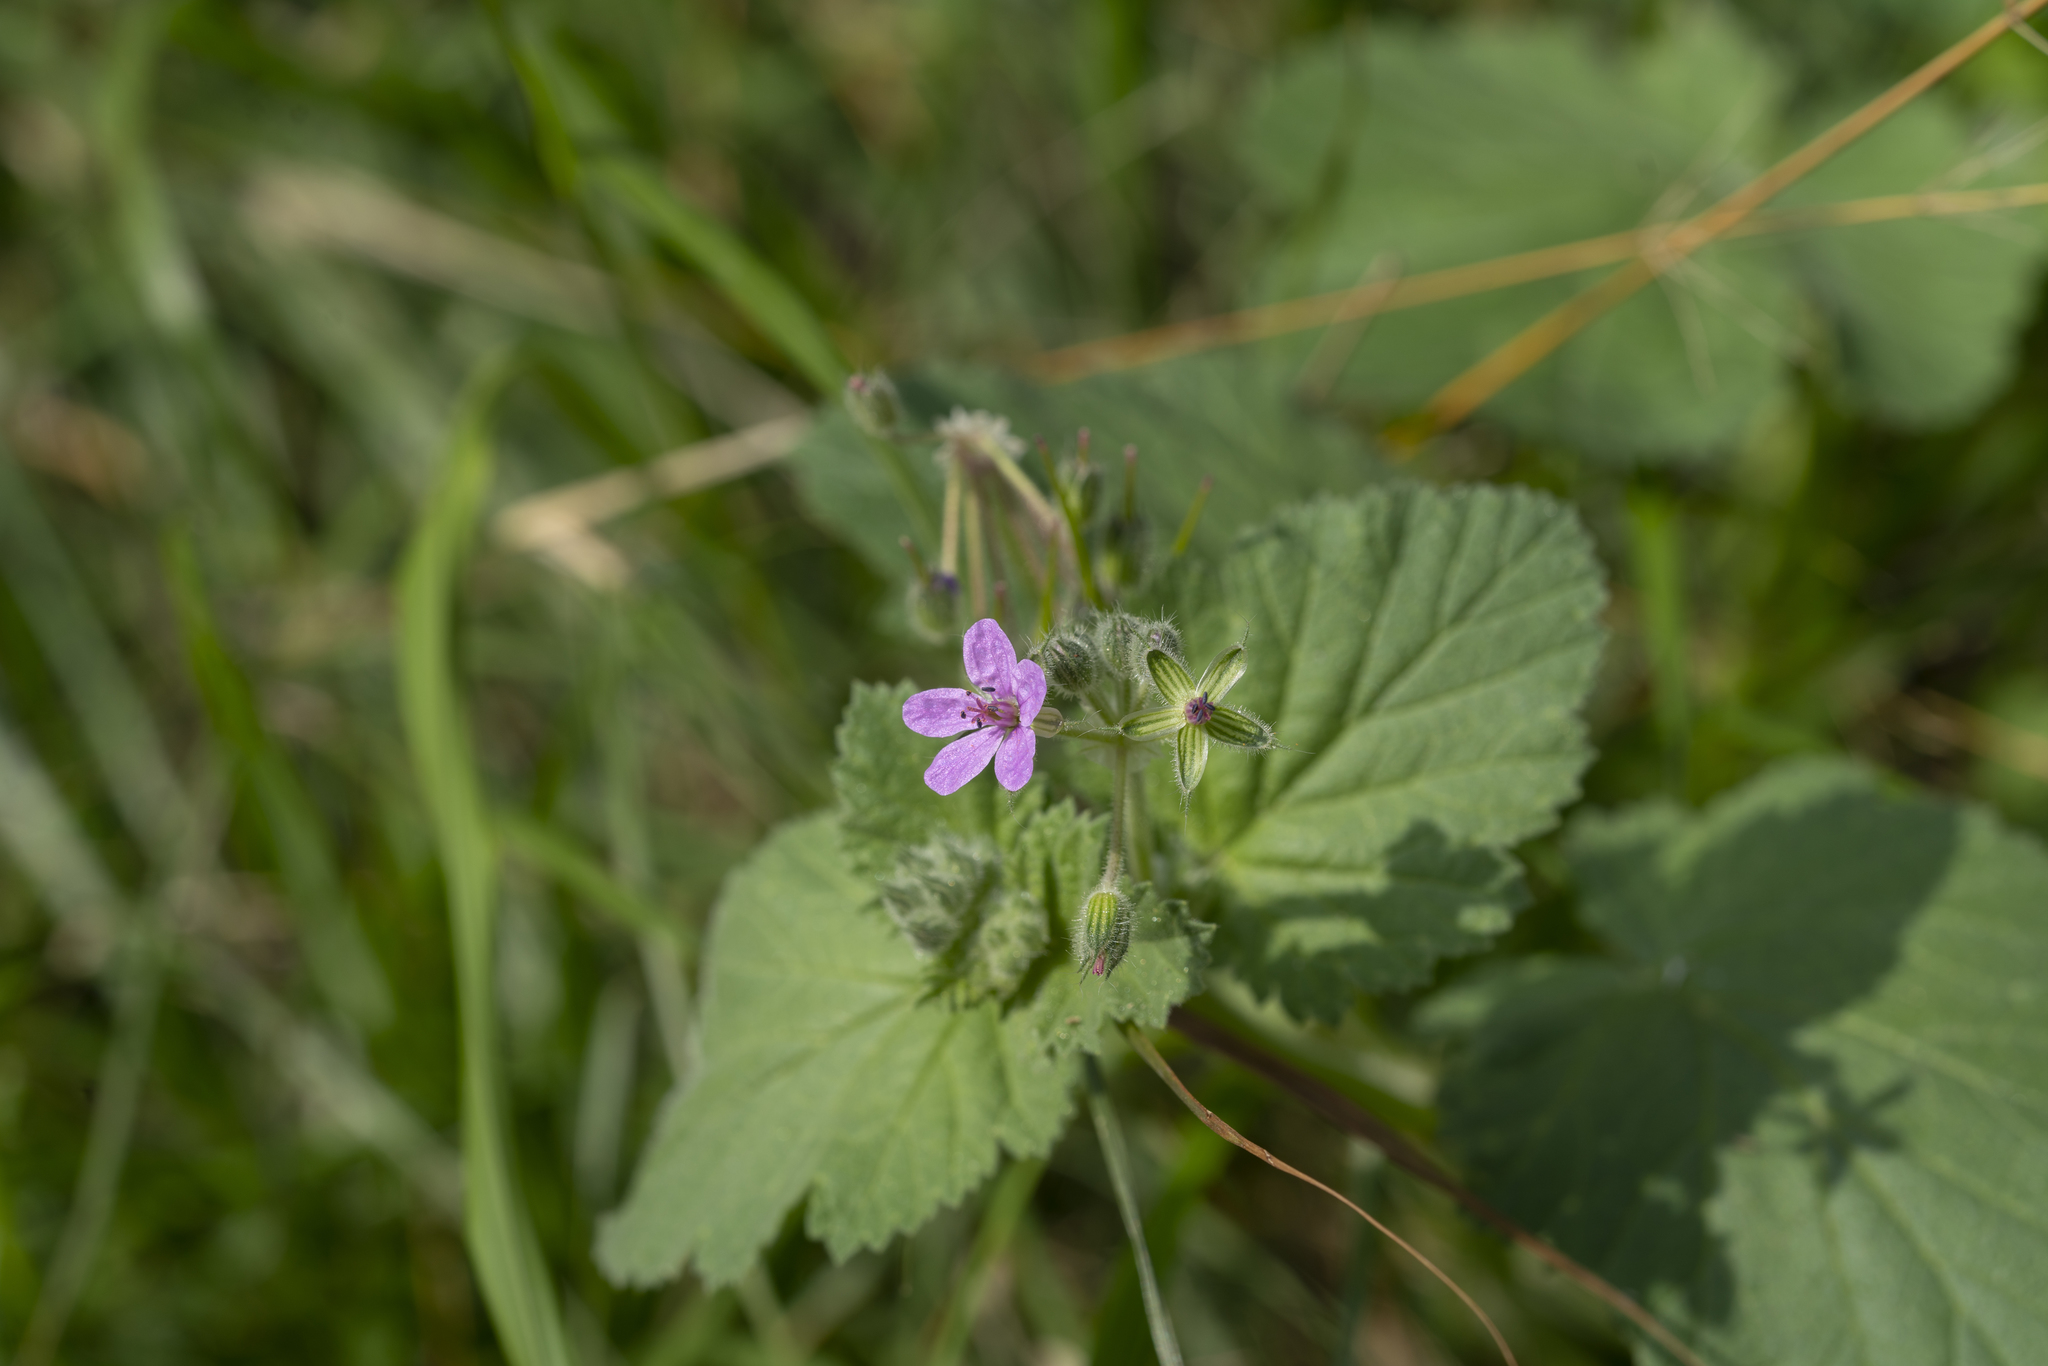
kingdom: Plantae
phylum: Tracheophyta
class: Magnoliopsida
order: Geraniales
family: Geraniaceae
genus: Erodium
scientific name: Erodium malacoides
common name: Soft stork's-bill
